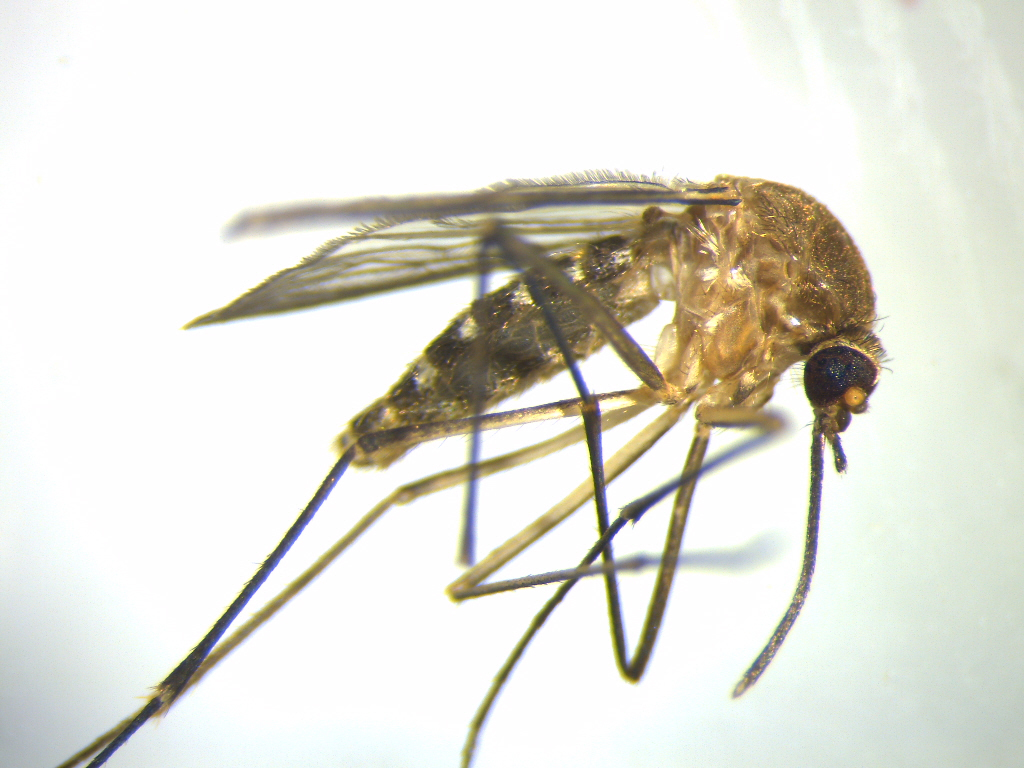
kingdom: Animalia
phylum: Arthropoda
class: Insecta
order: Diptera
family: Culicidae
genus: Culex
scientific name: Culex quinquefasciatus
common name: Southern house mosquito
